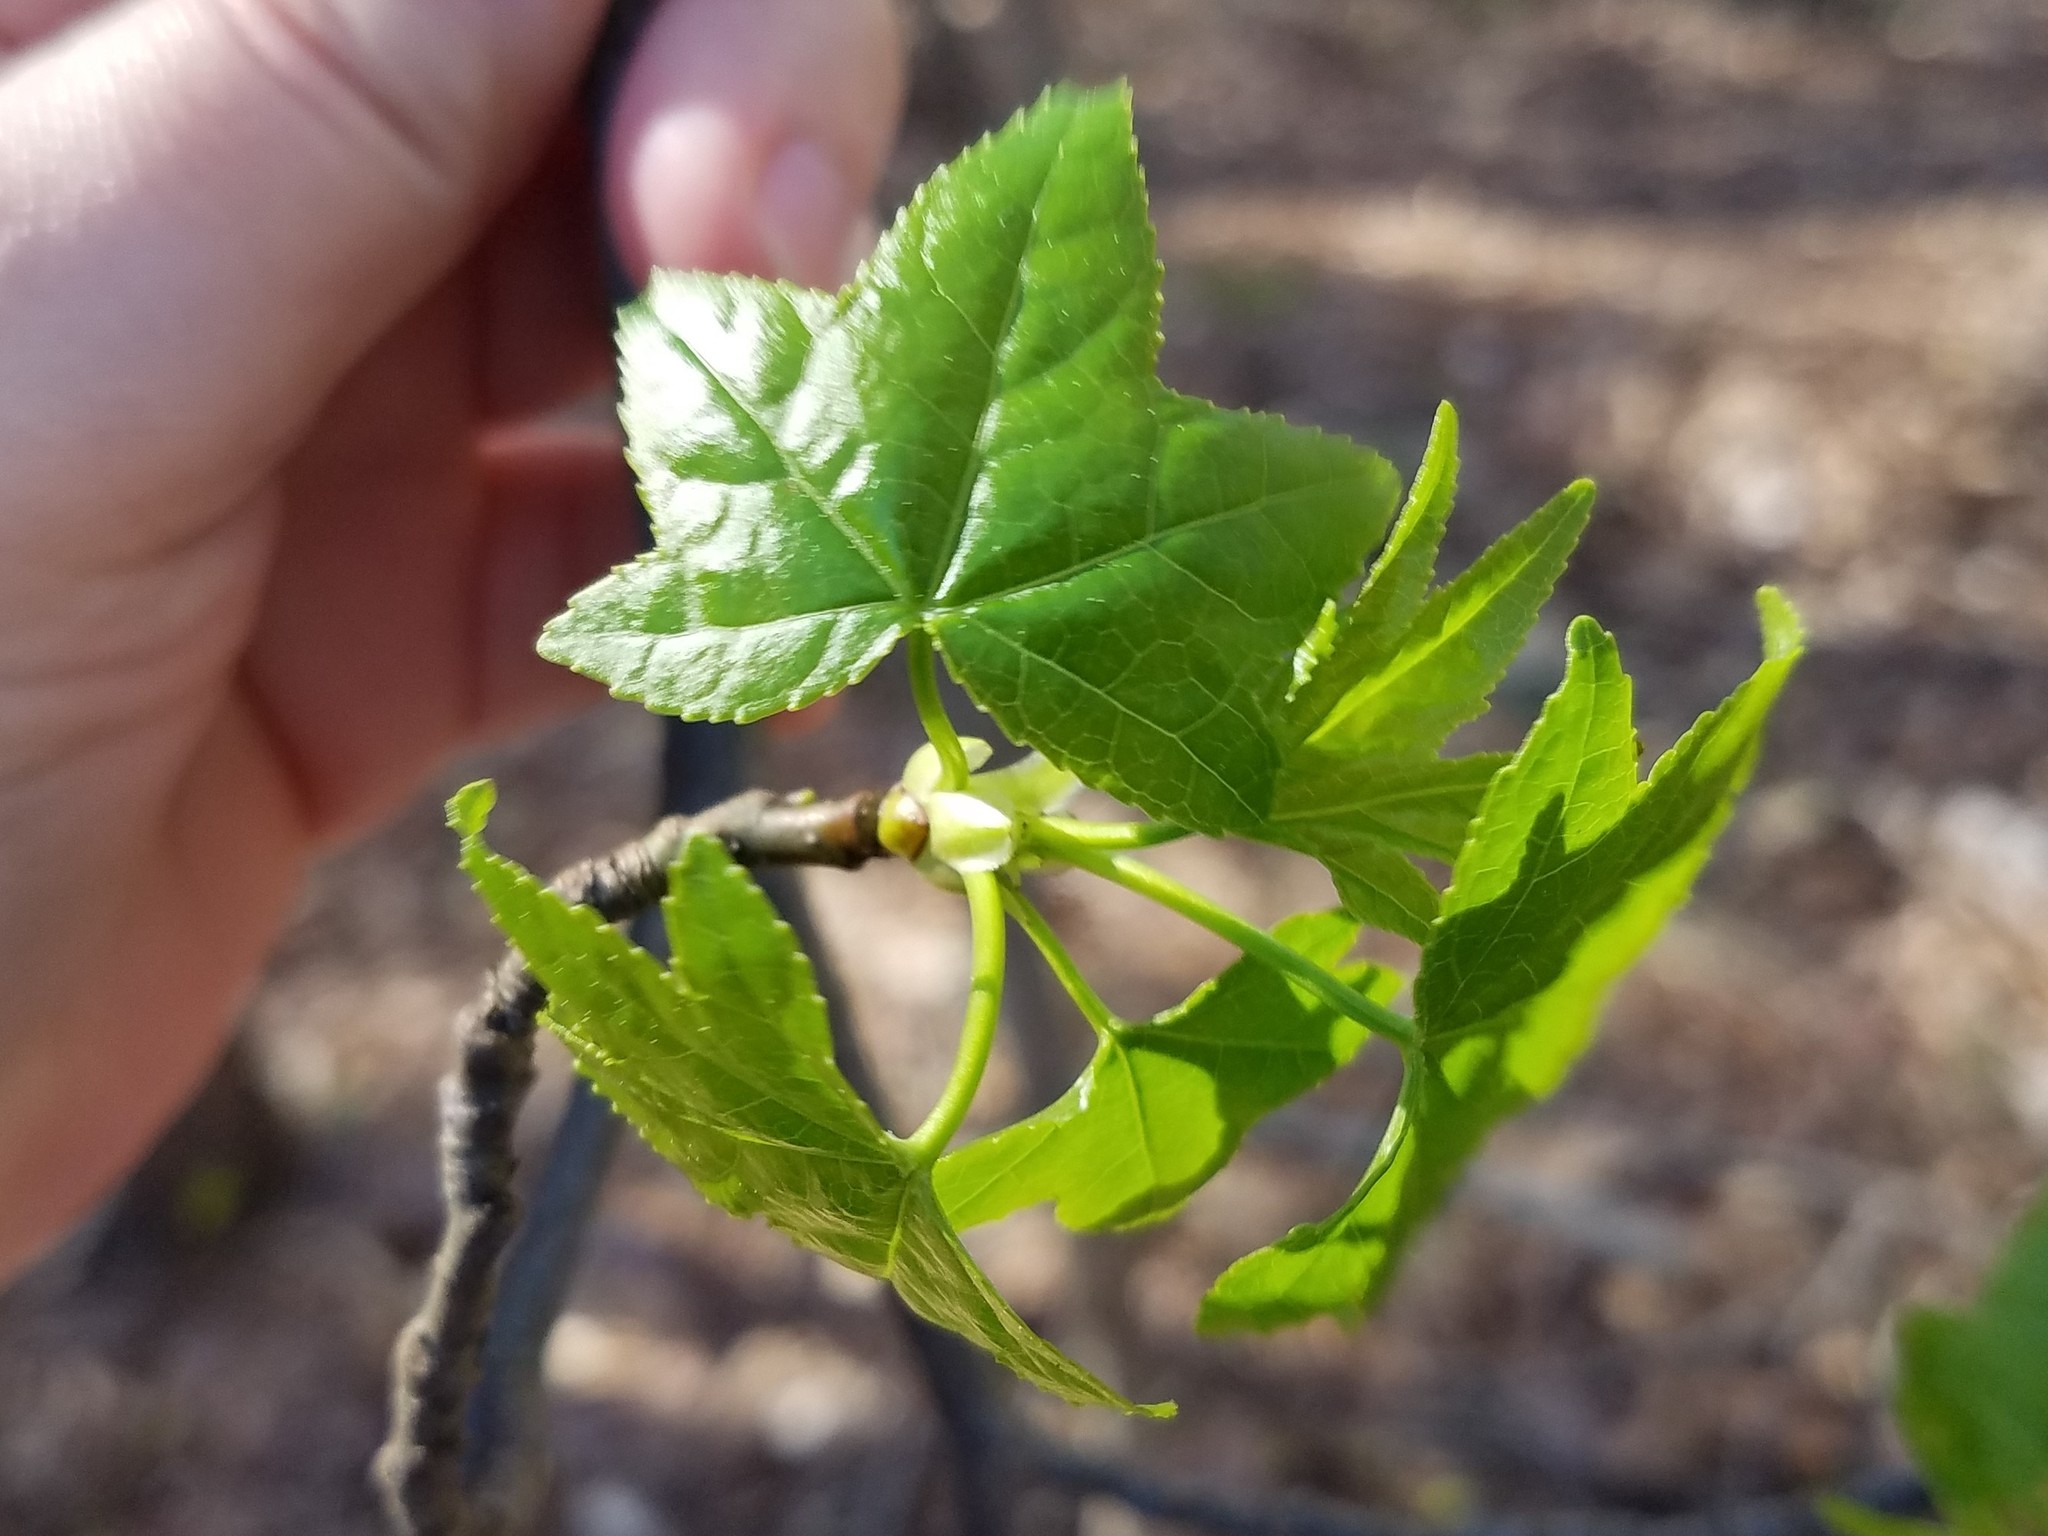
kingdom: Plantae
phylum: Tracheophyta
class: Magnoliopsida
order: Saxifragales
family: Altingiaceae
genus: Liquidambar
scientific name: Liquidambar styraciflua
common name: Sweet gum
